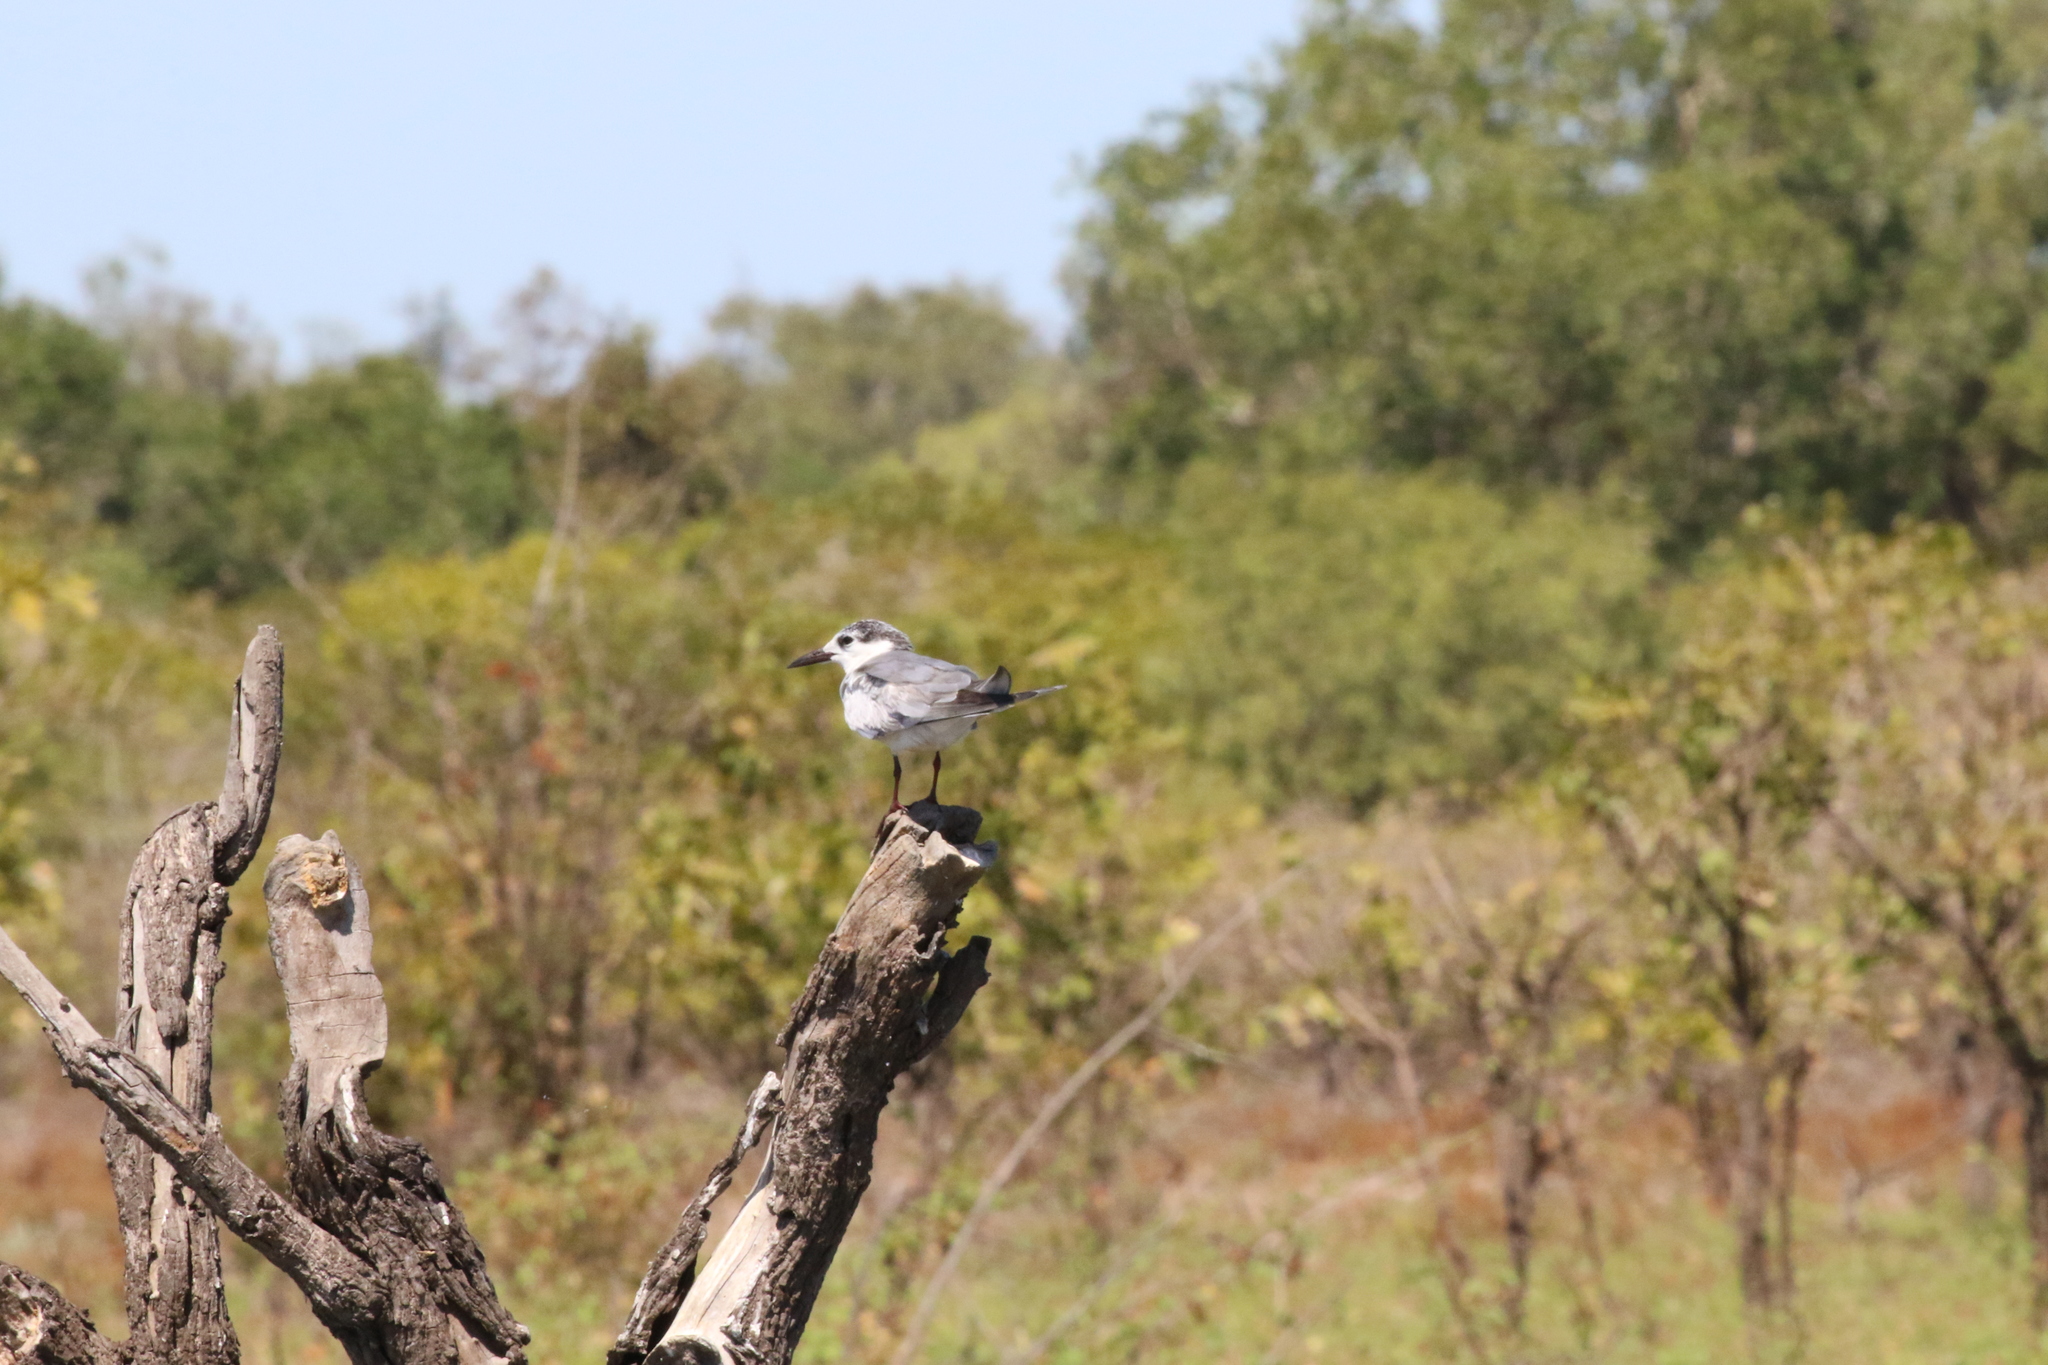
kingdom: Animalia
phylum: Chordata
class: Aves
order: Charadriiformes
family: Laridae
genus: Chlidonias
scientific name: Chlidonias hybrida
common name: Whiskered tern
